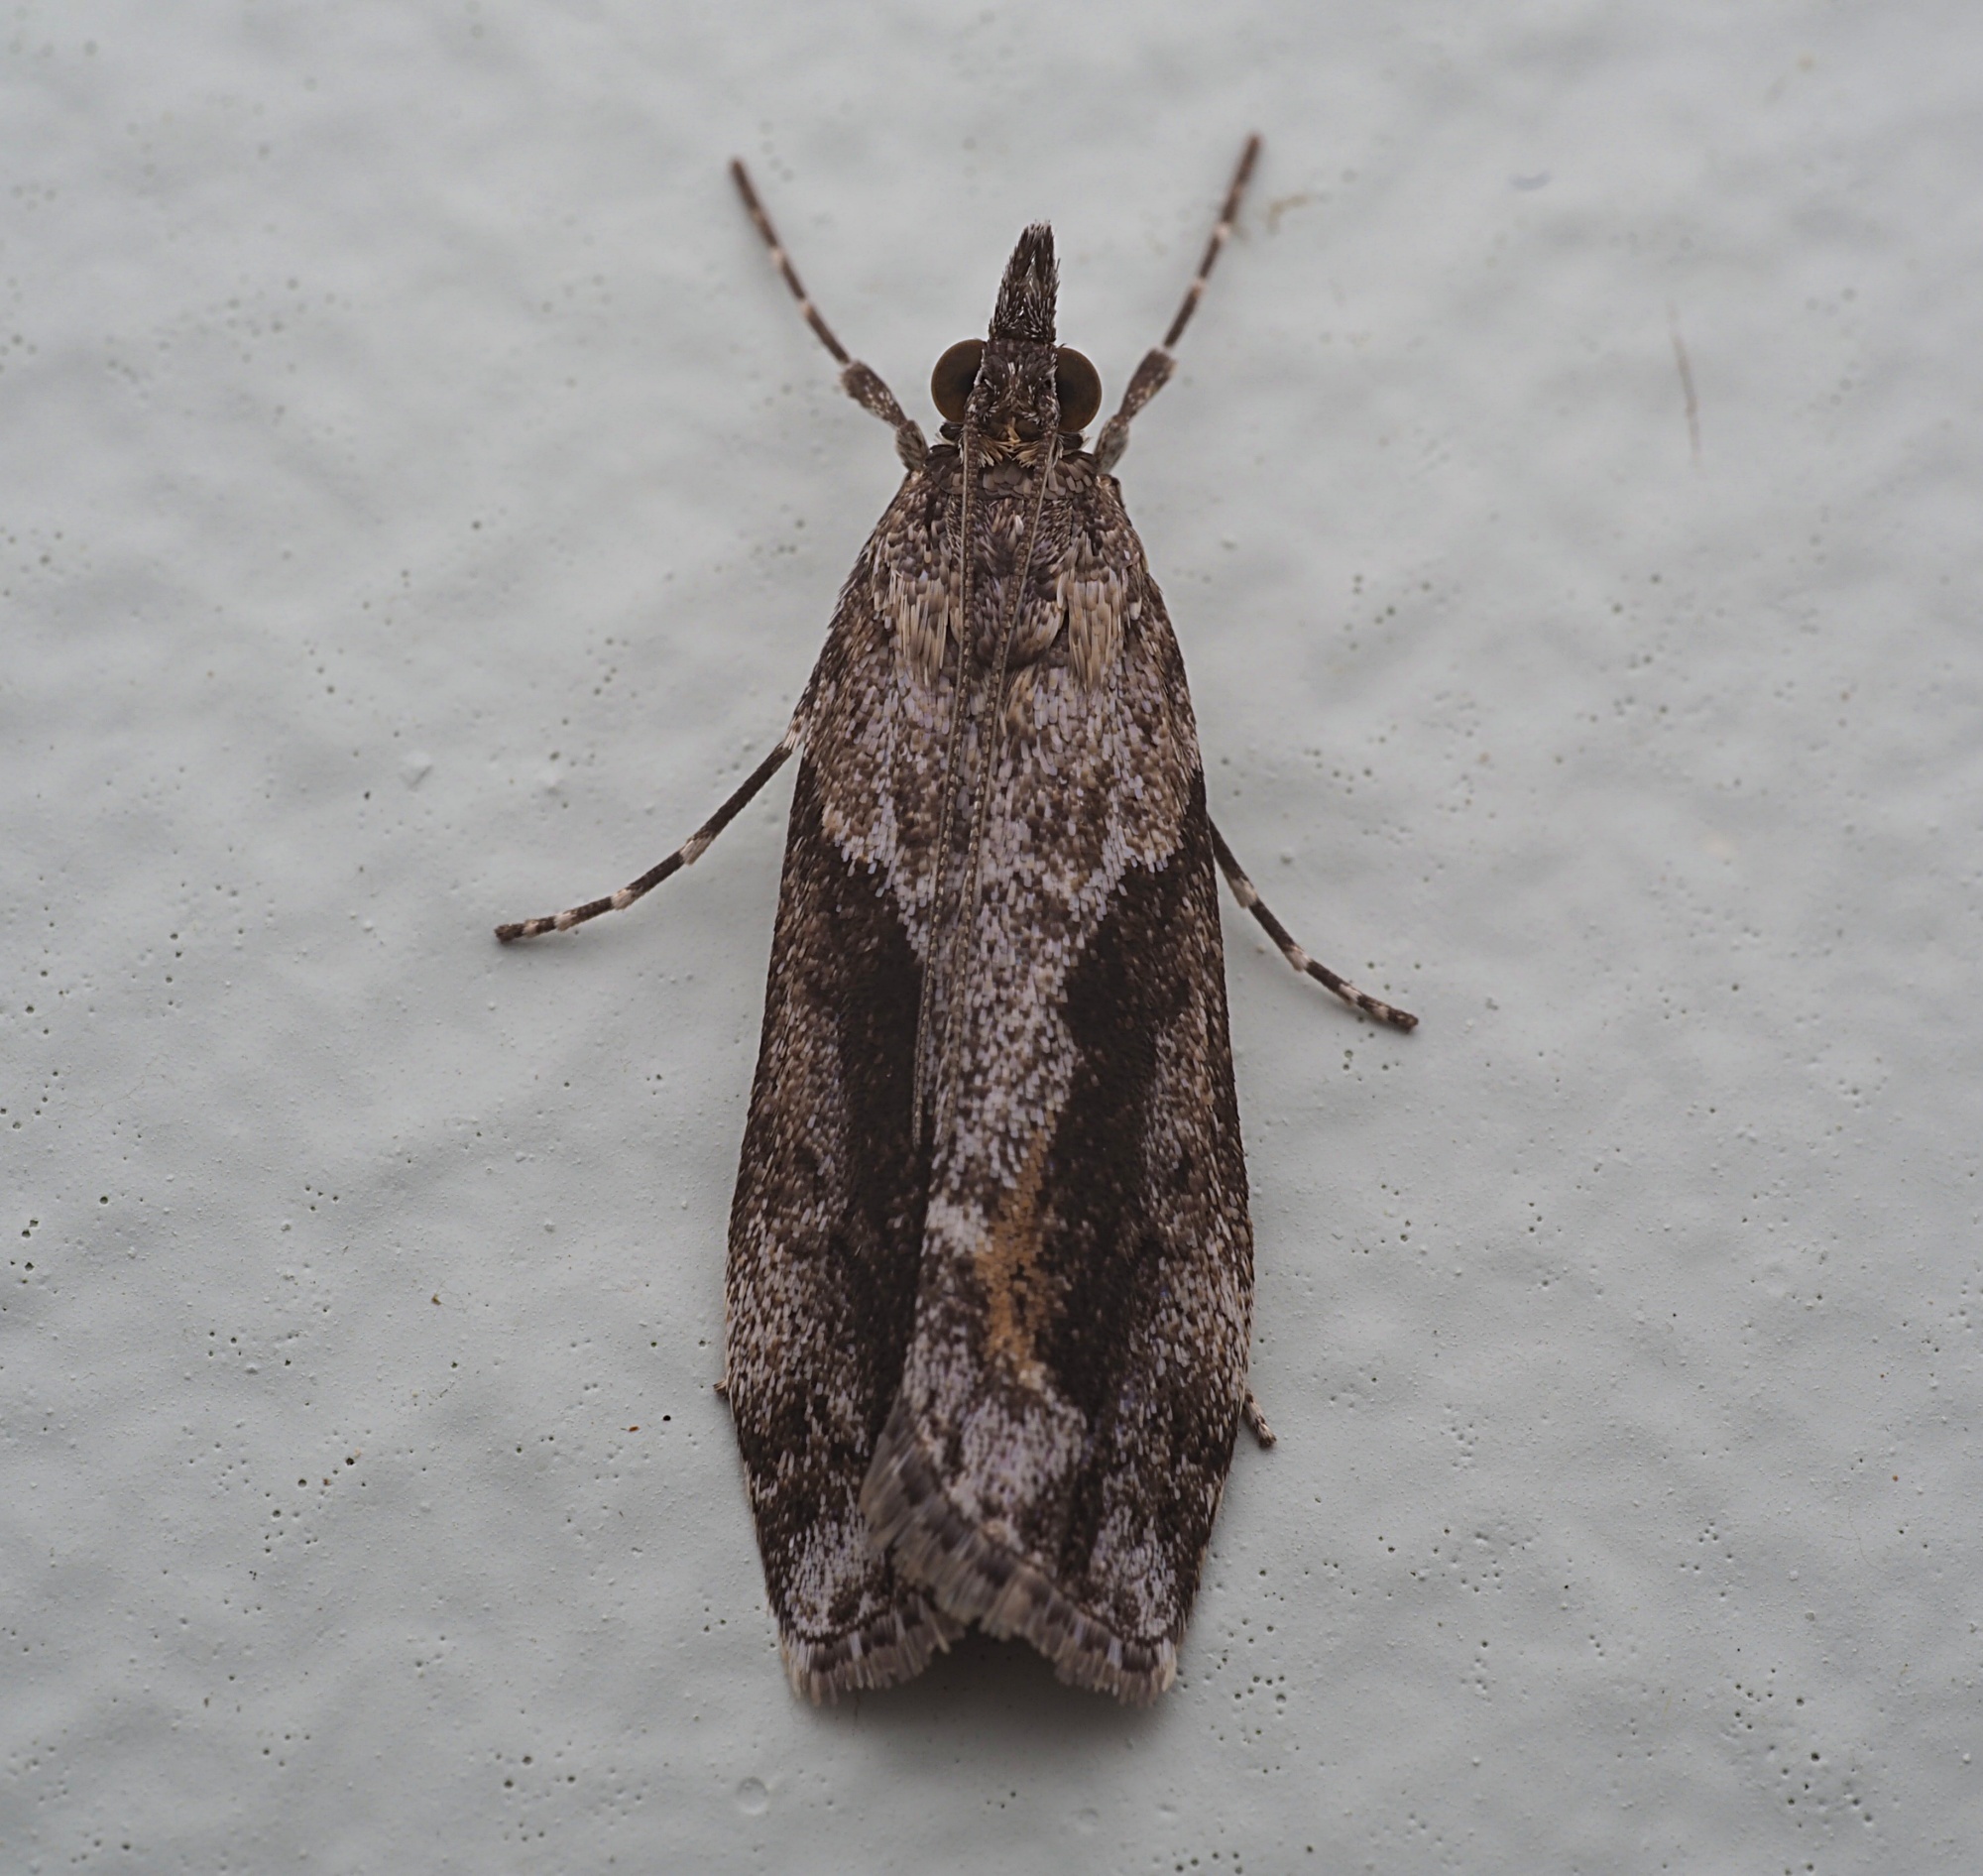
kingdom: Animalia
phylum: Arthropoda
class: Insecta
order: Lepidoptera
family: Crambidae
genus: Eudonia
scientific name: Eudonia submarginalis
